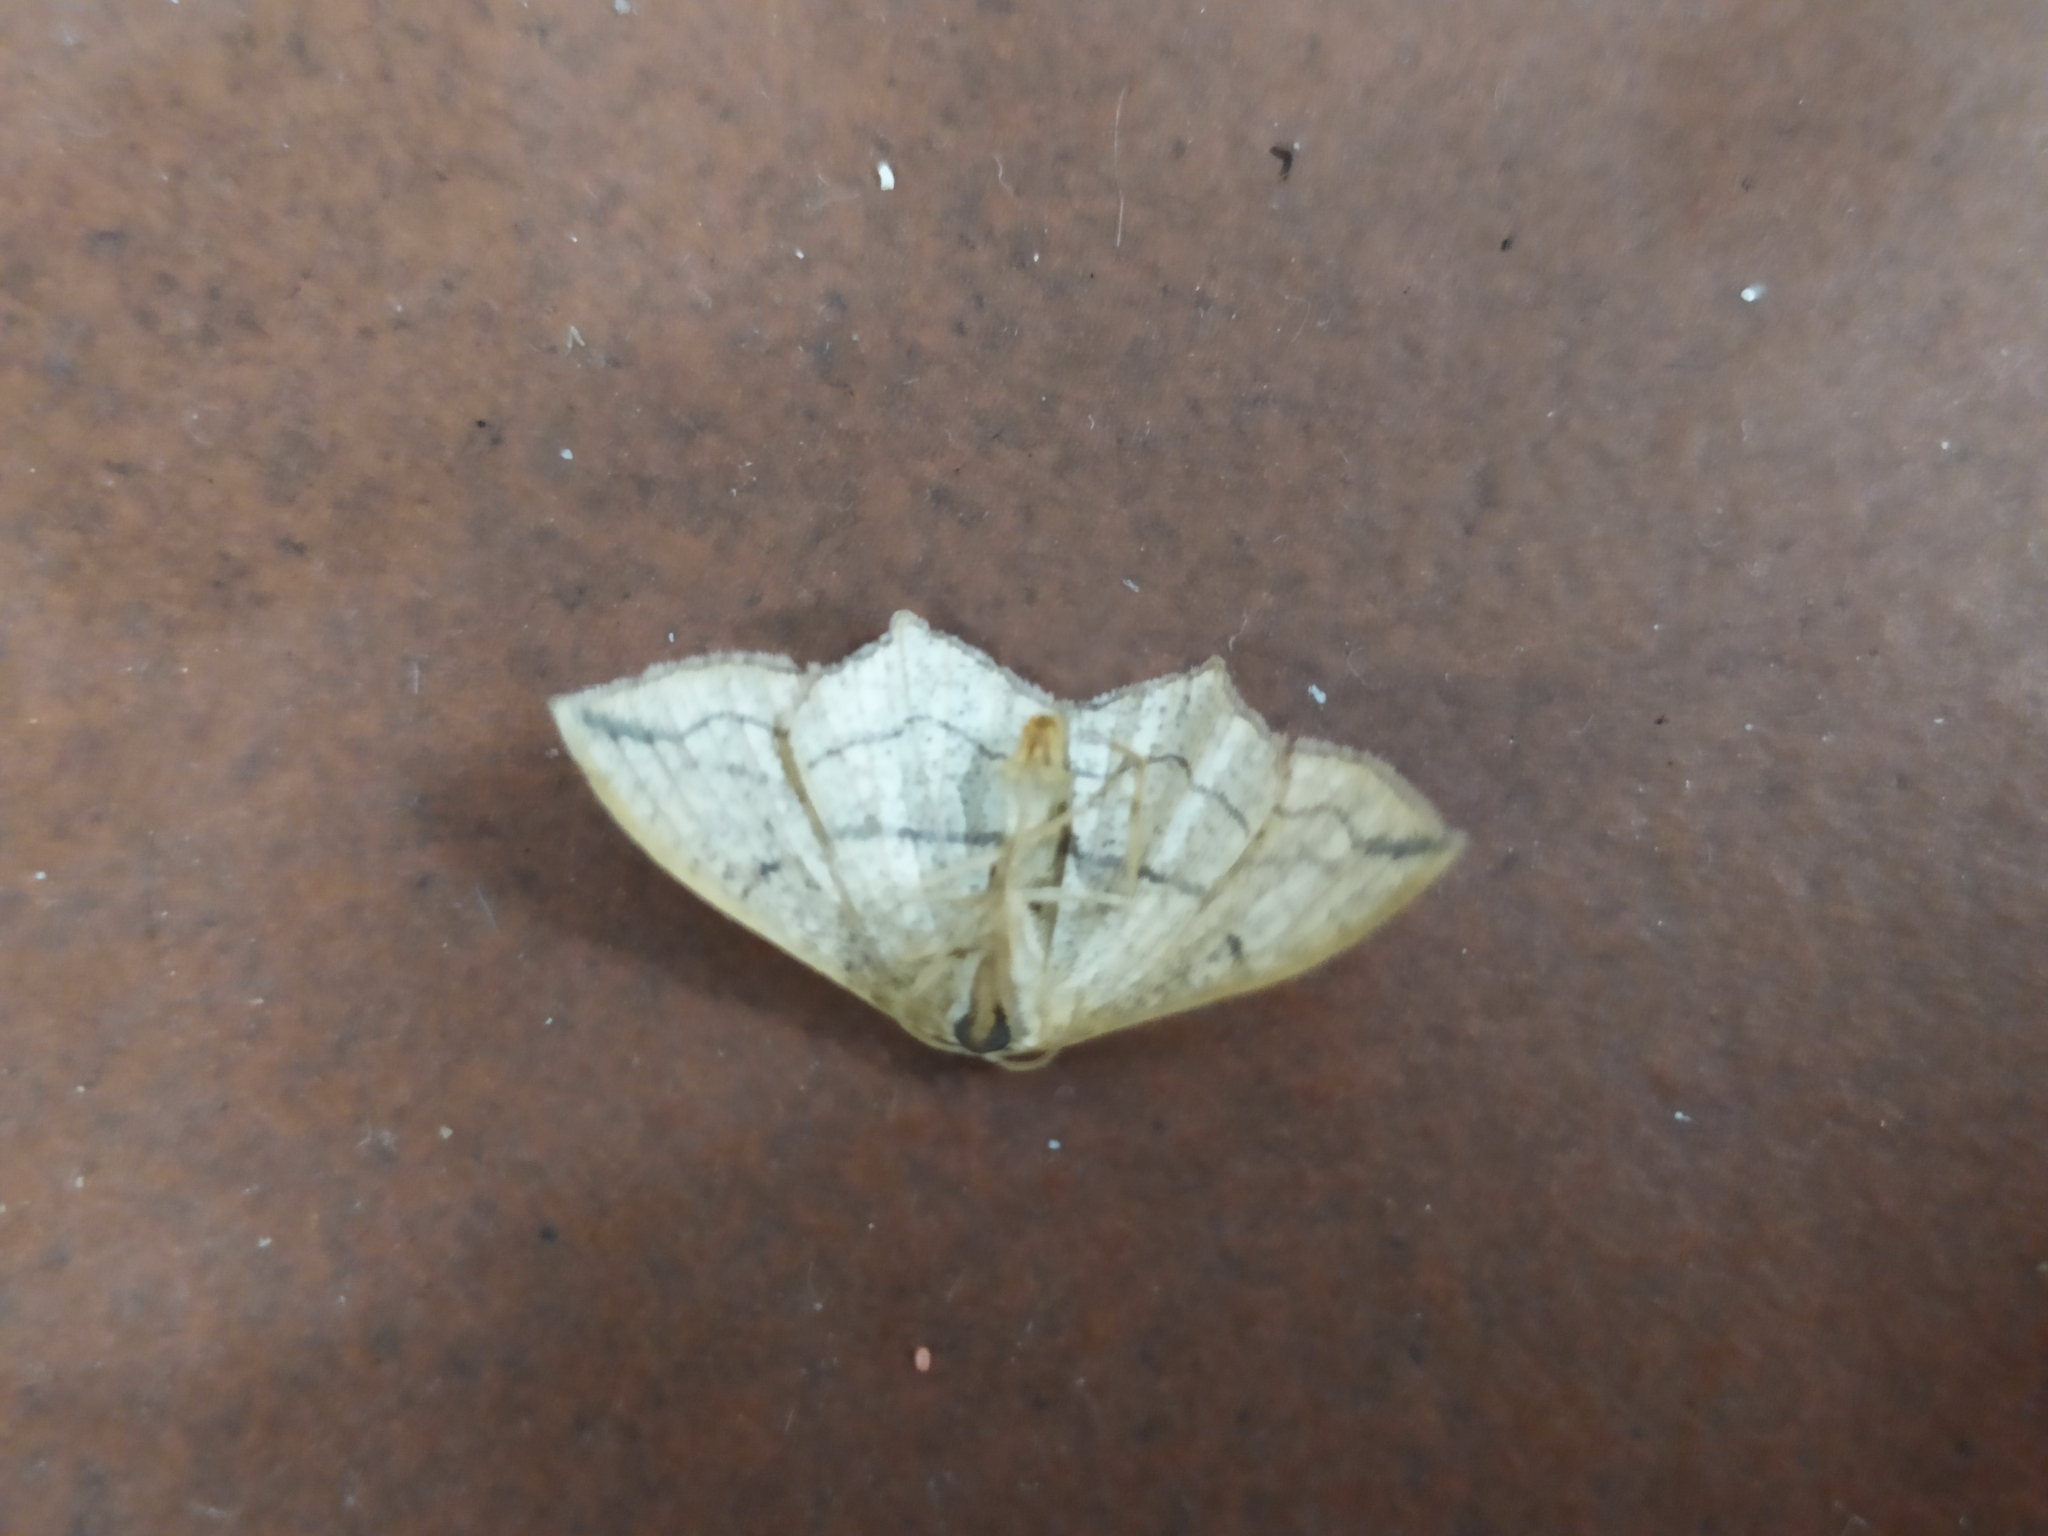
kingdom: Animalia
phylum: Arthropoda
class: Insecta
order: Lepidoptera
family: Geometridae
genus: Timandra
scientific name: Timandra comae
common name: Blood-vein
